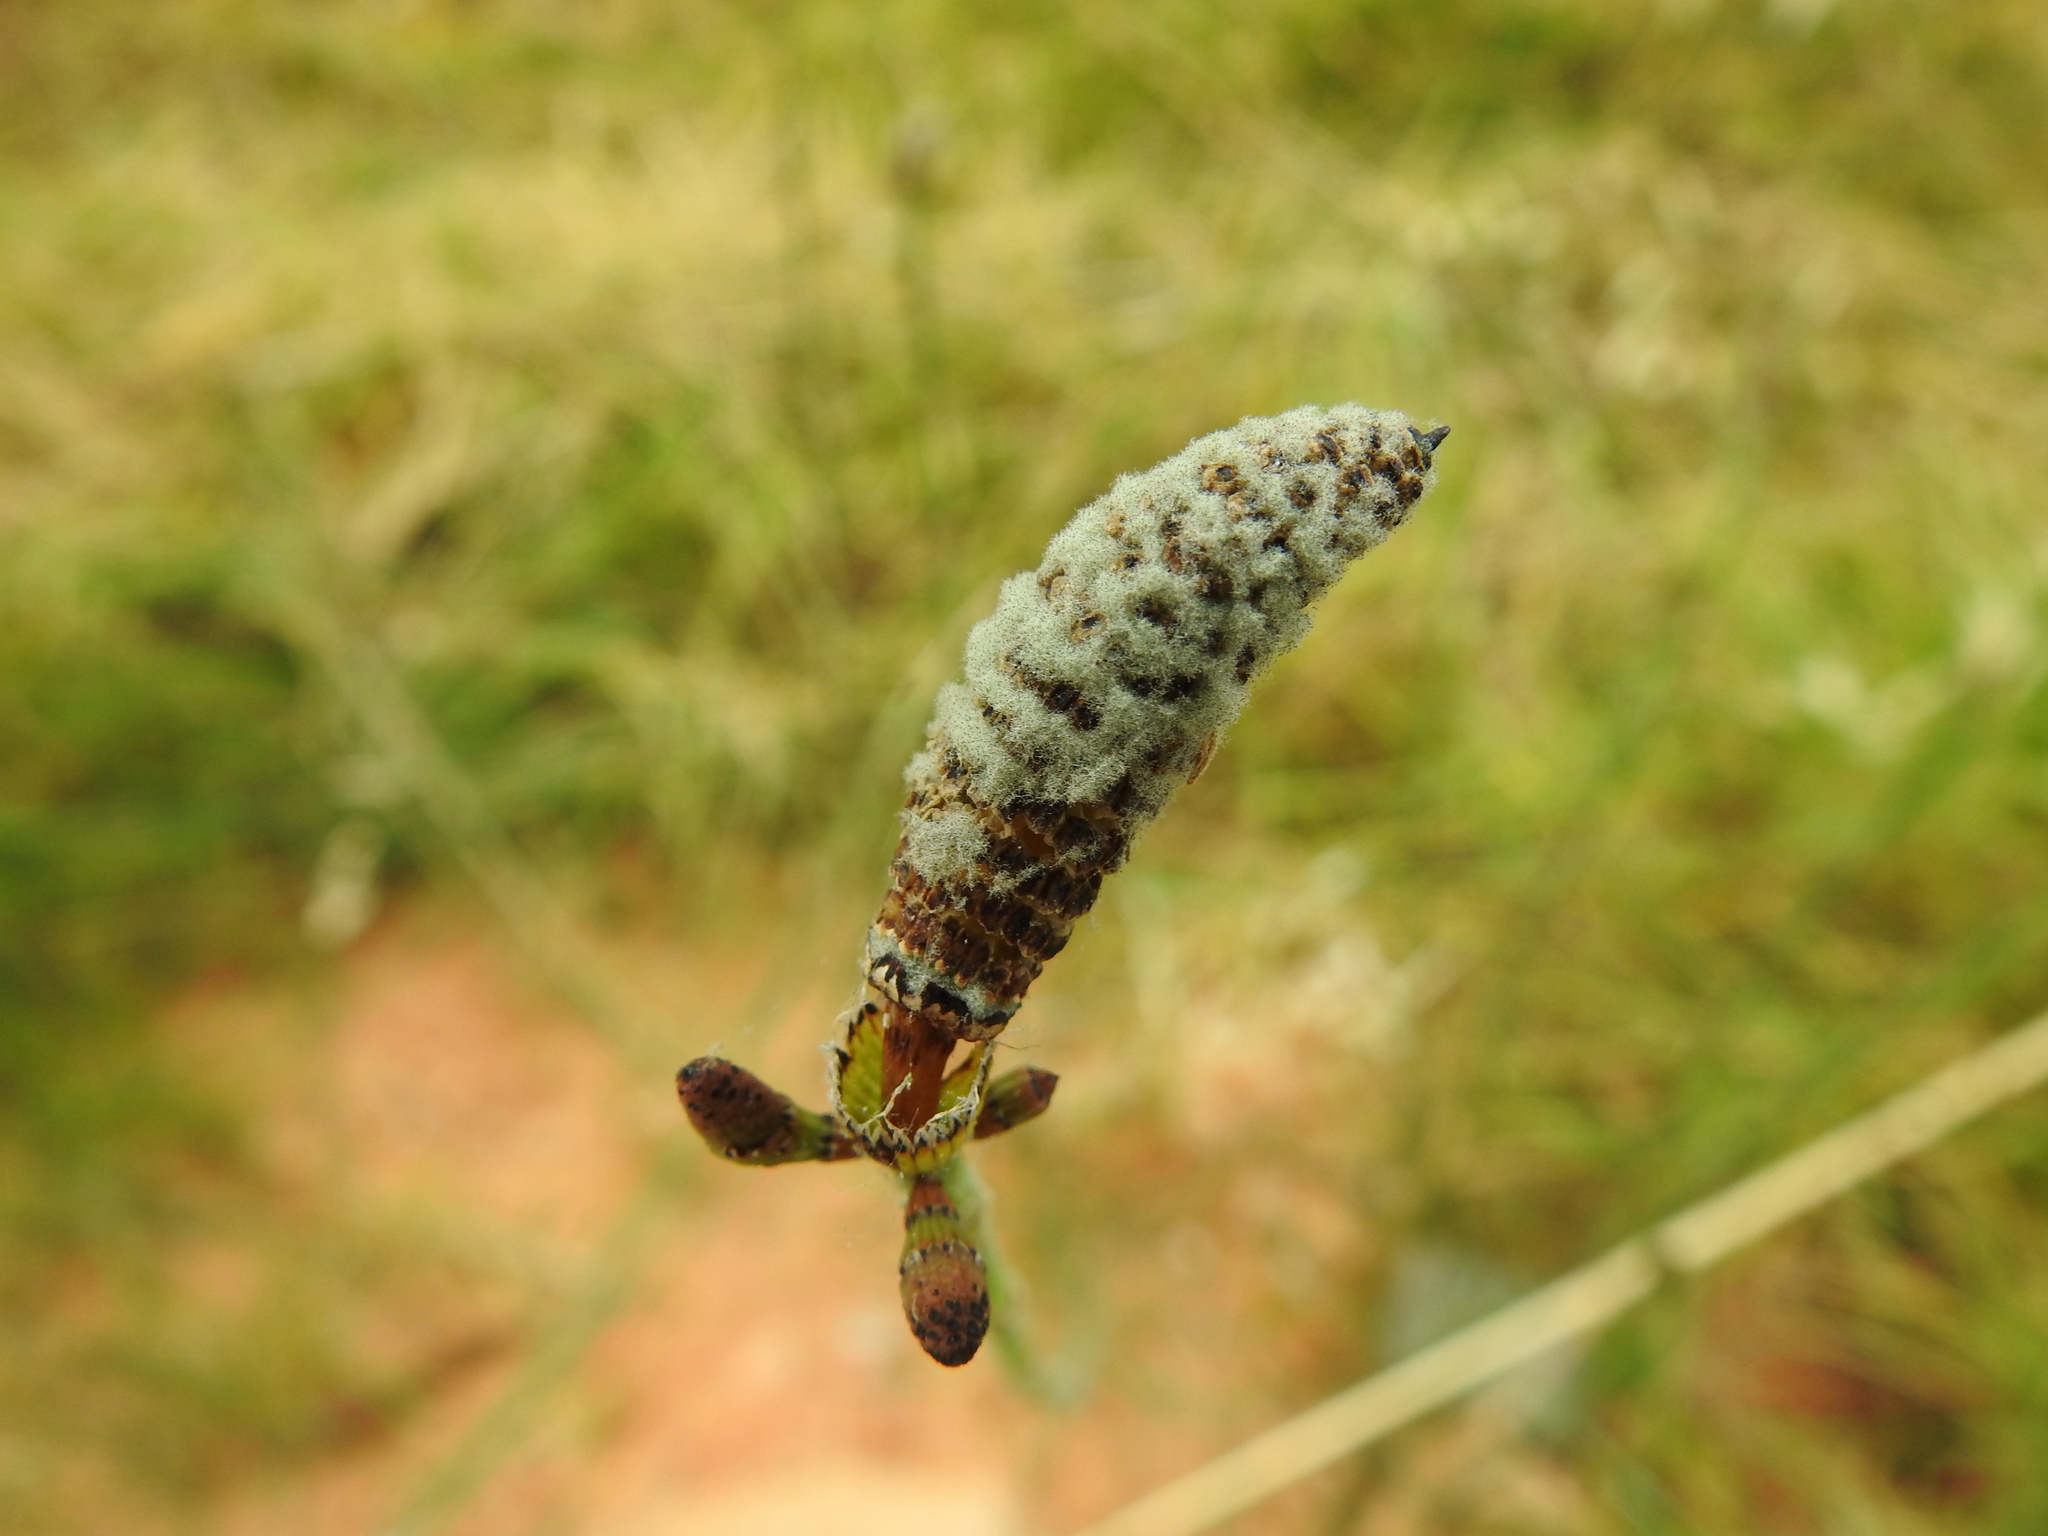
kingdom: Plantae
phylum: Tracheophyta
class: Polypodiopsida
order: Equisetales
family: Equisetaceae
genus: Equisetum
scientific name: Equisetum ramosissimum
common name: Branched horsetail
